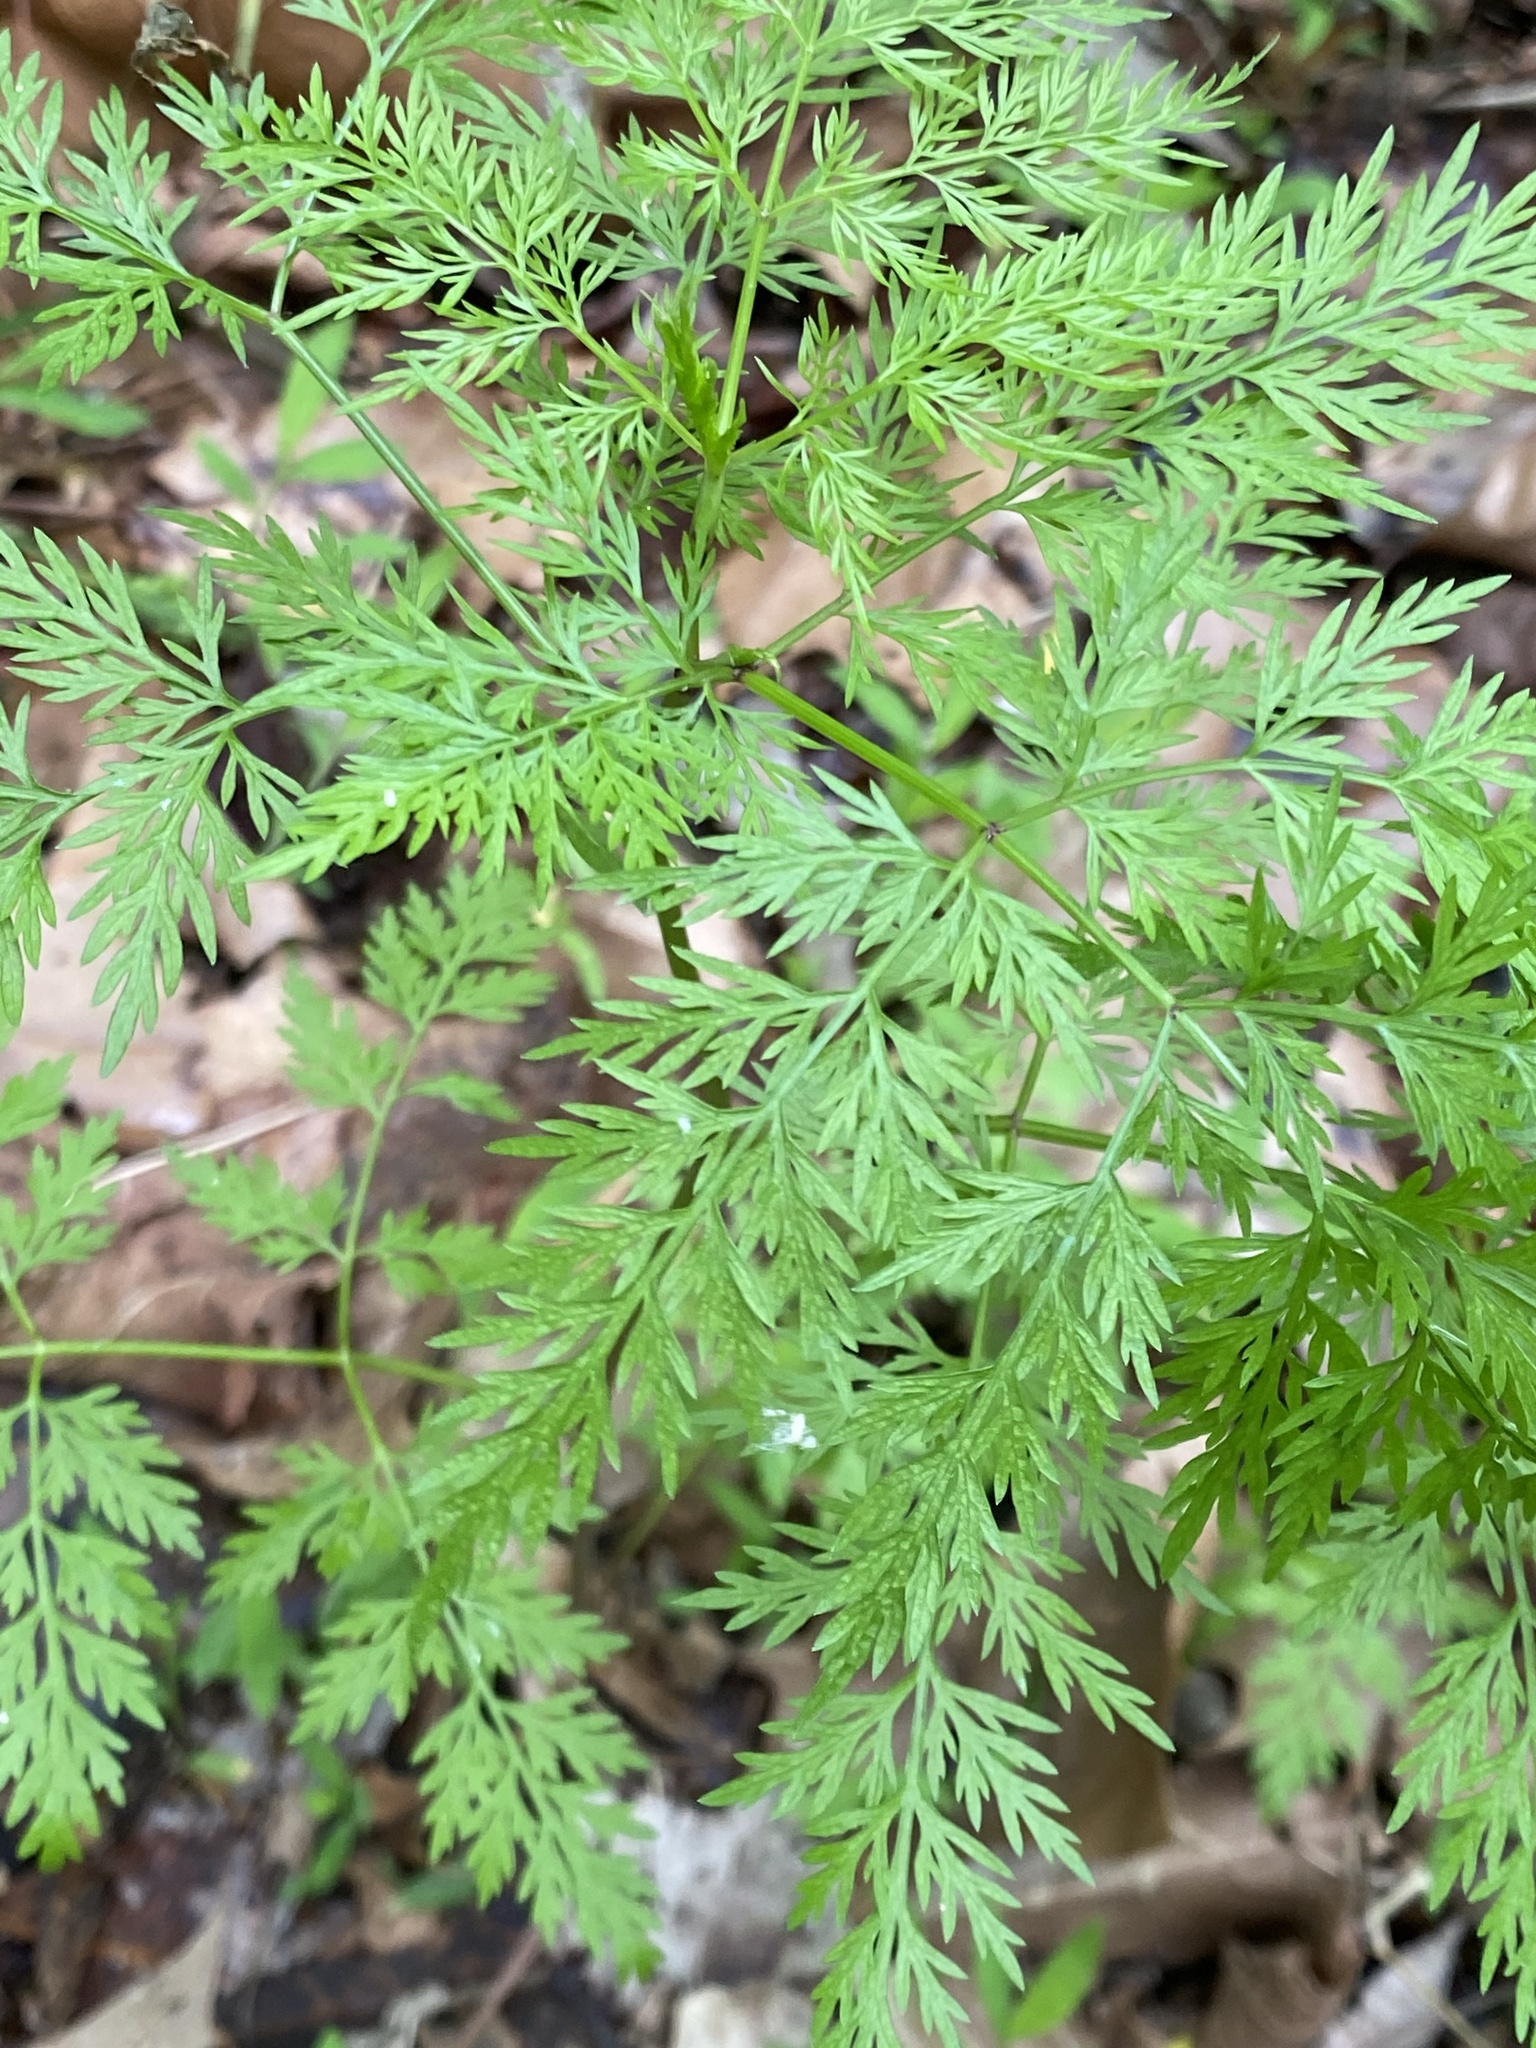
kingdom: Plantae
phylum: Tracheophyta
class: Magnoliopsida
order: Apiales
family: Apiaceae
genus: Trepocarpus
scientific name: Trepocarpus aethusae
